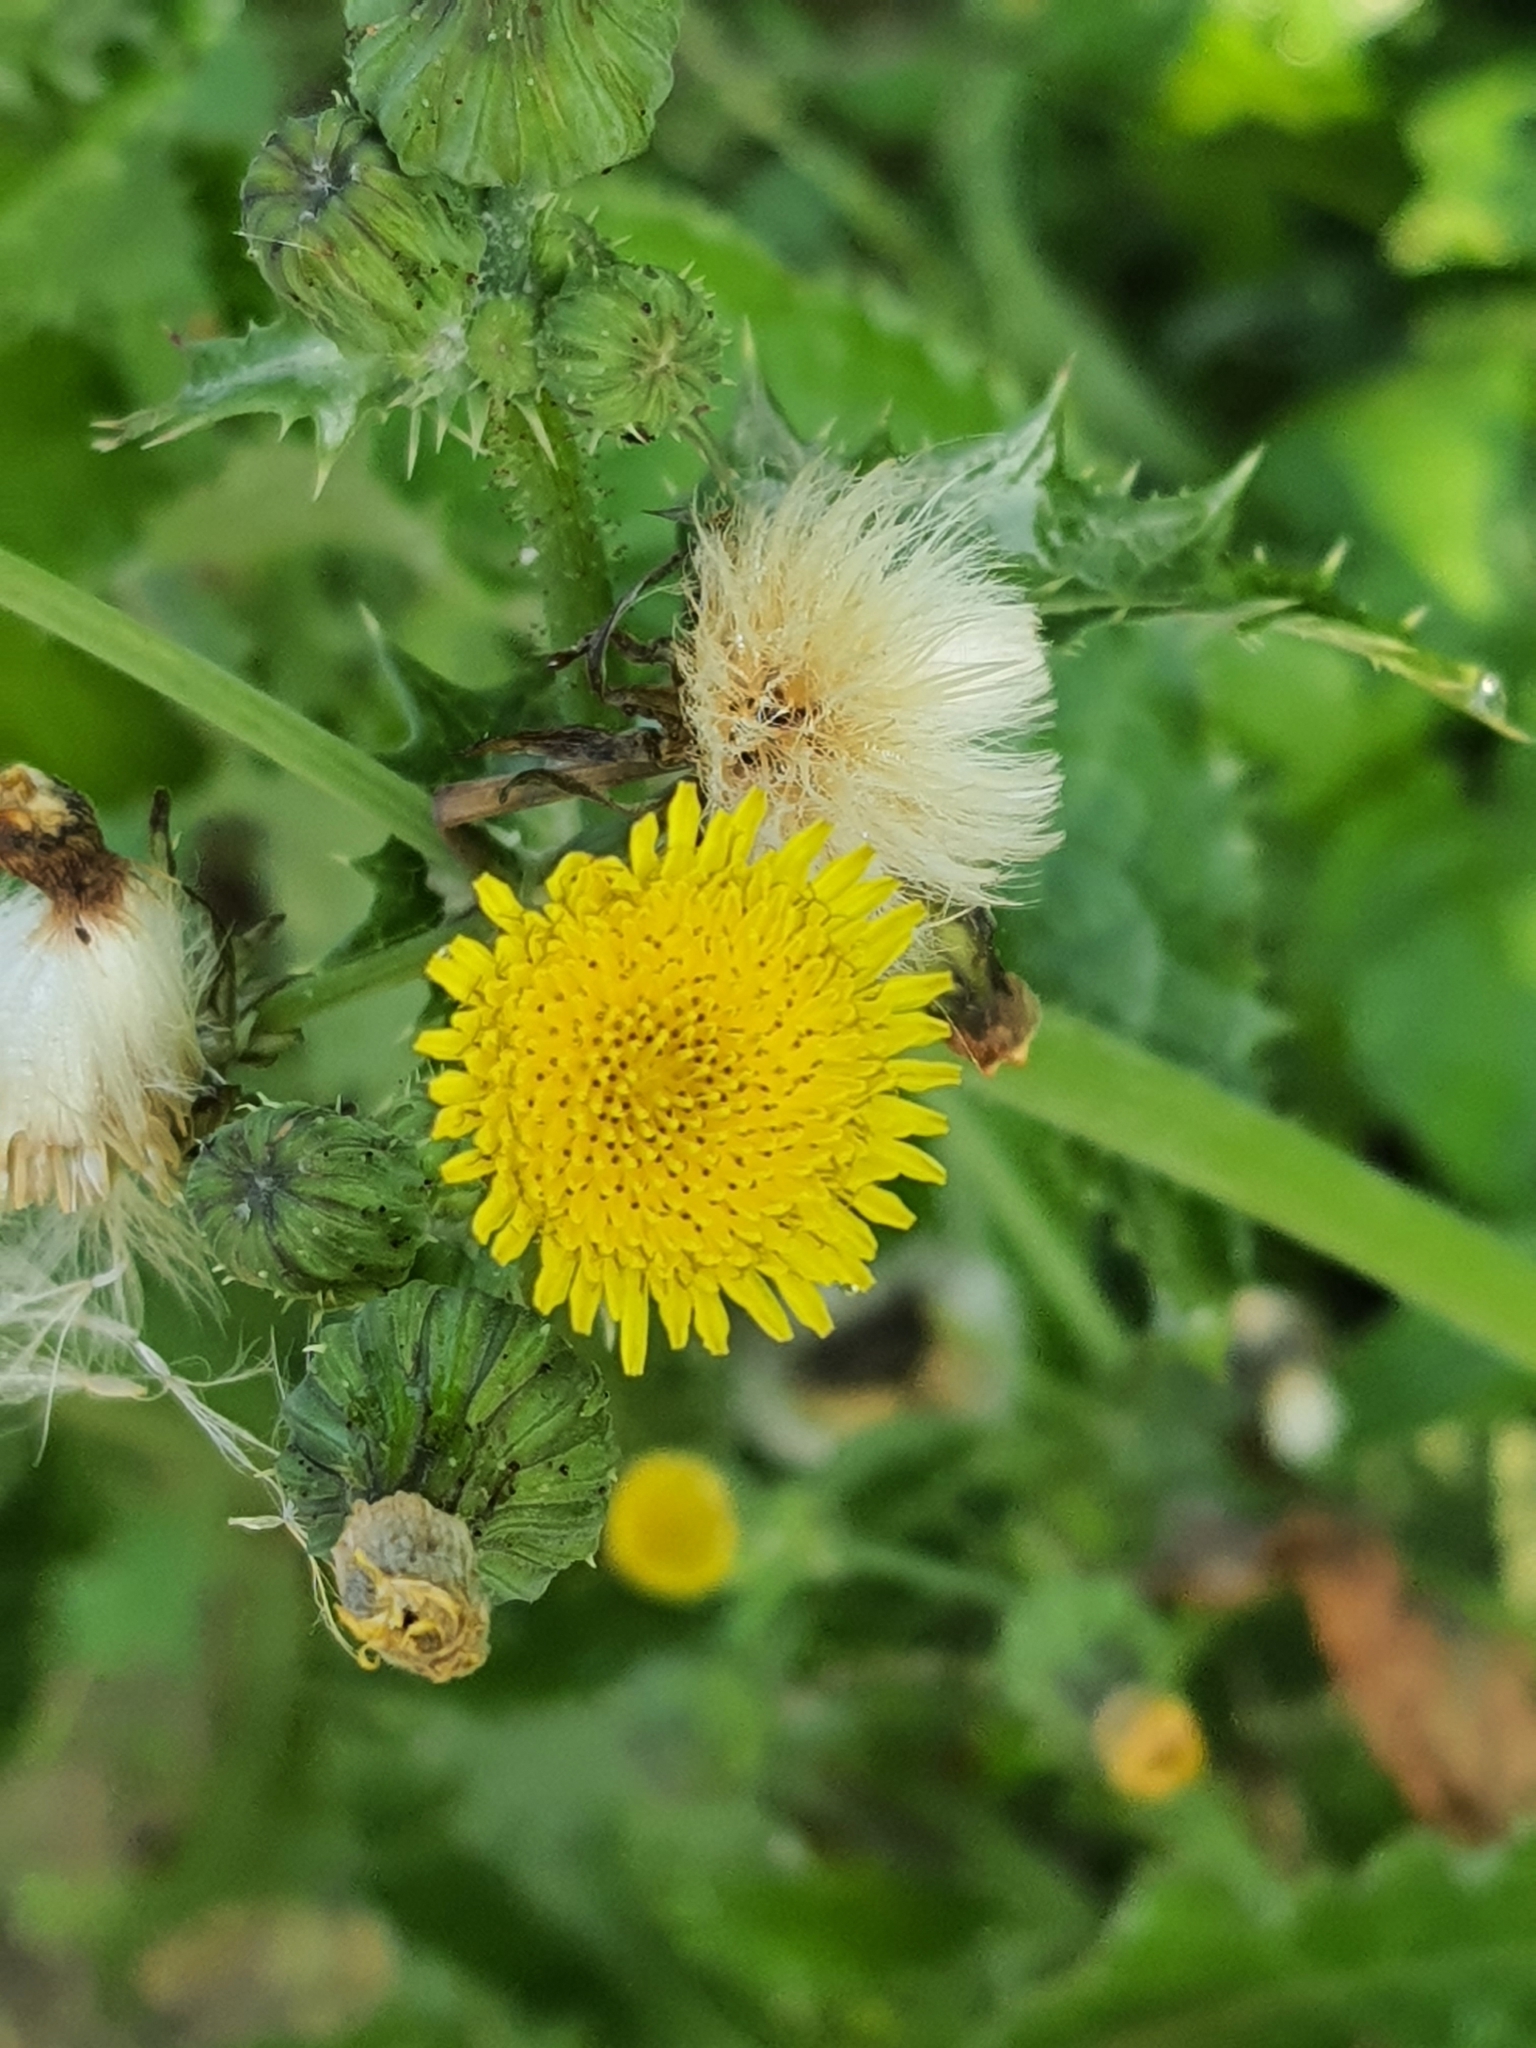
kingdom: Plantae
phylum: Tracheophyta
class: Magnoliopsida
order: Asterales
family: Asteraceae
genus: Sonchus
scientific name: Sonchus asper
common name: Prickly sow-thistle
